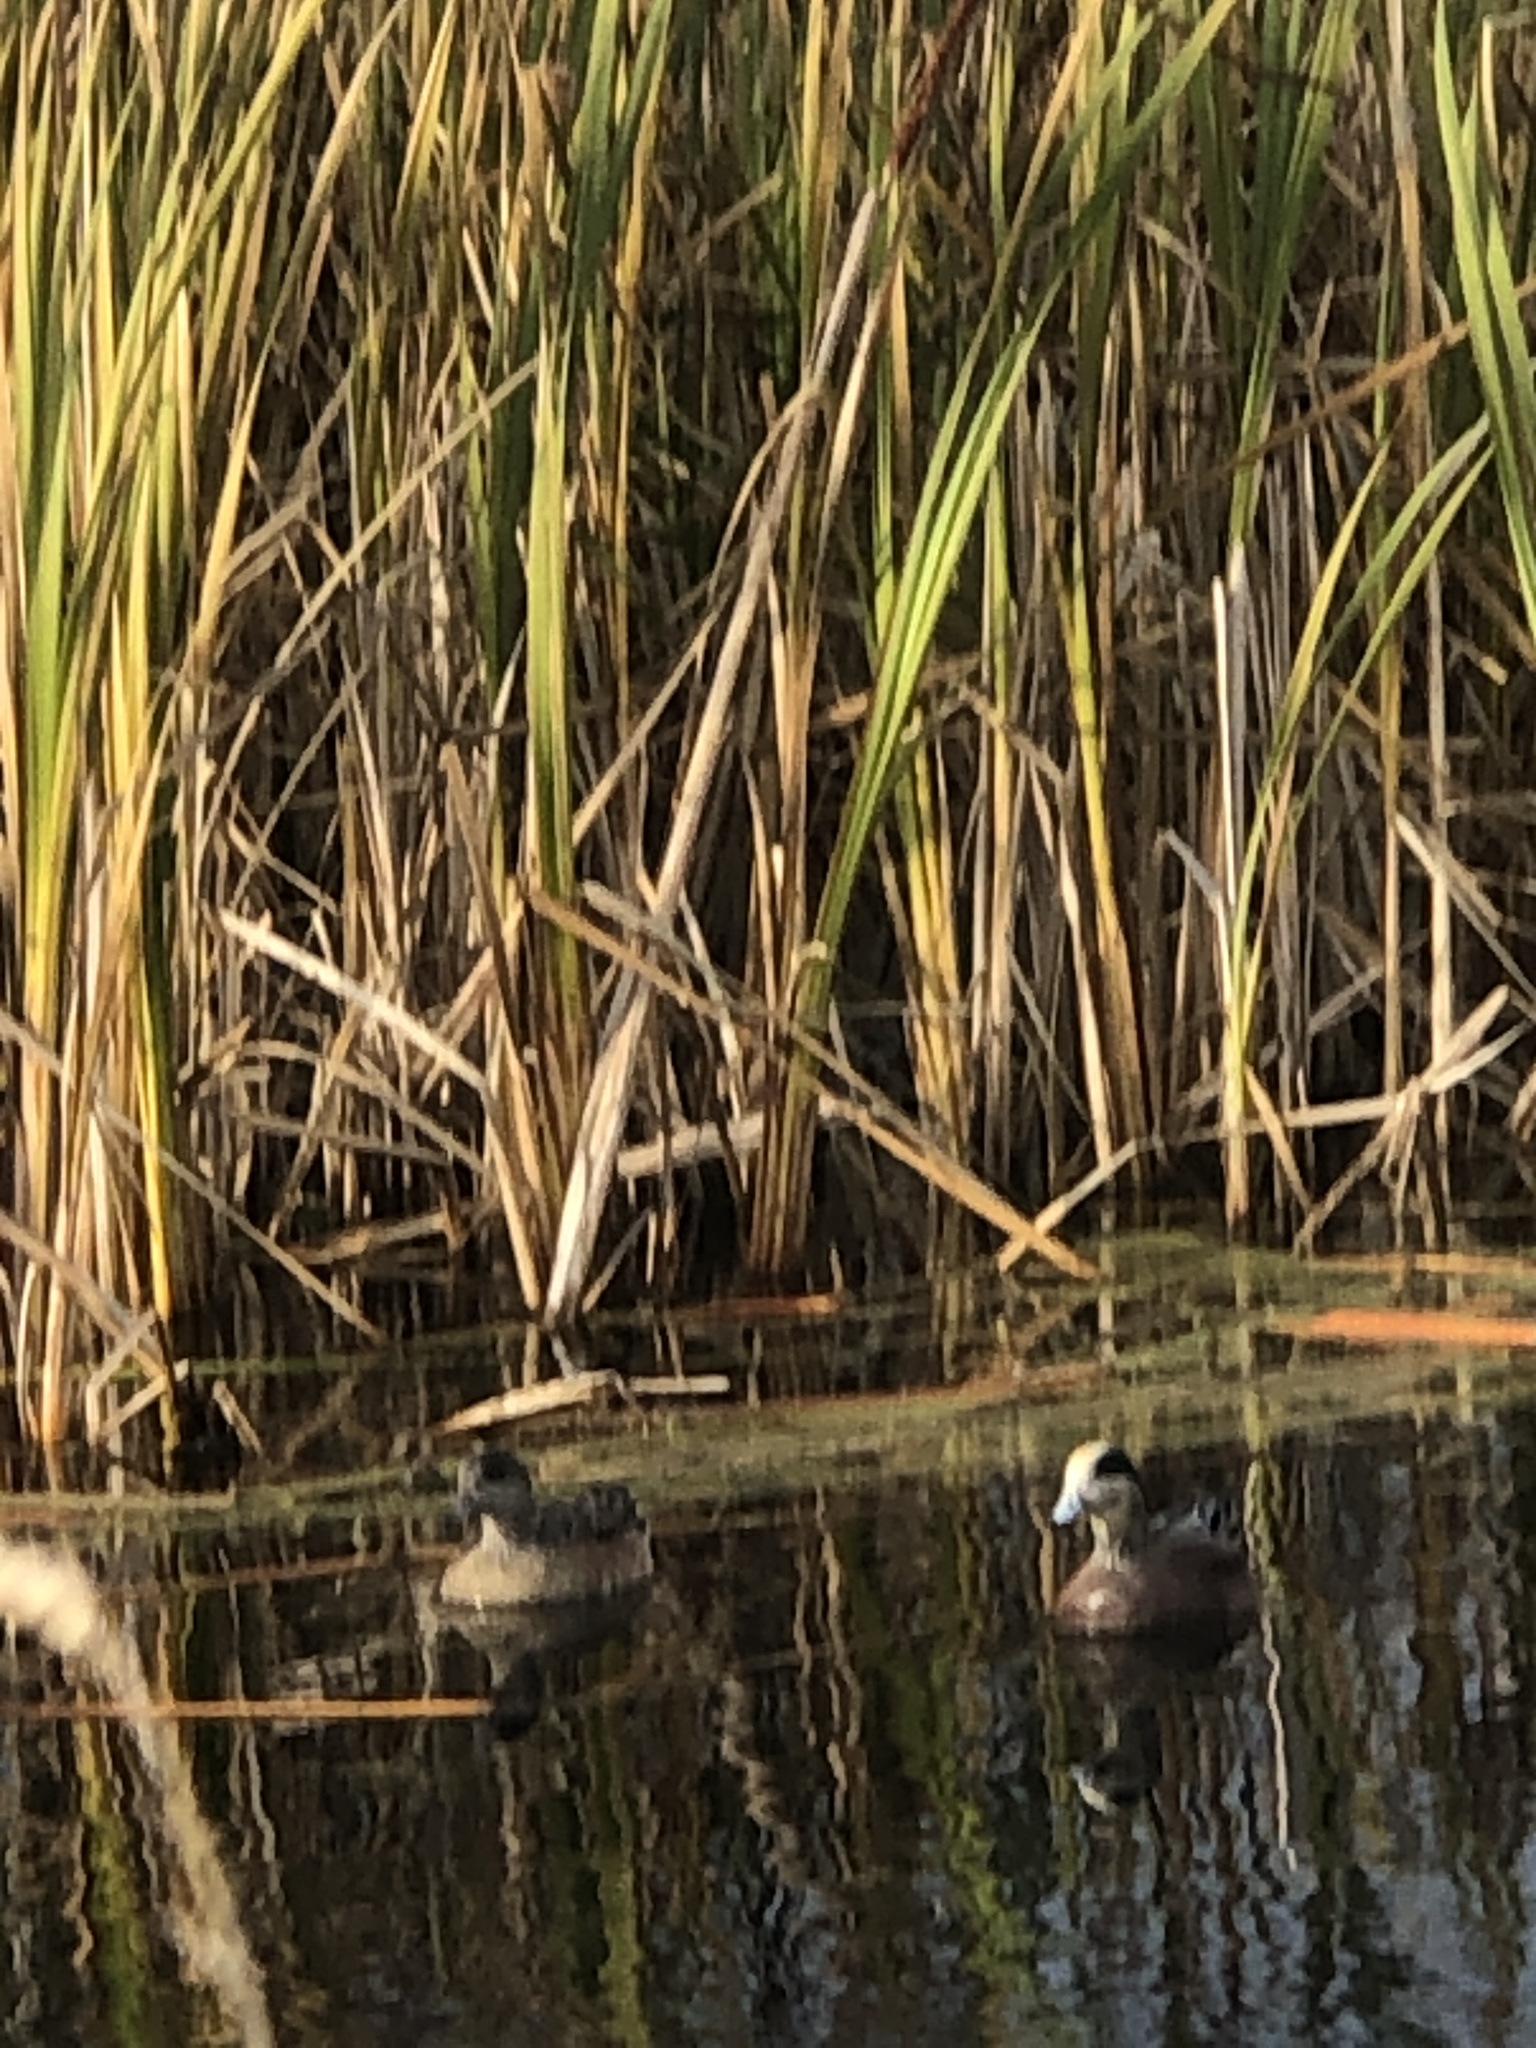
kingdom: Animalia
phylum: Chordata
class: Aves
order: Anseriformes
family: Anatidae
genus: Mareca
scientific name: Mareca americana
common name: American wigeon
